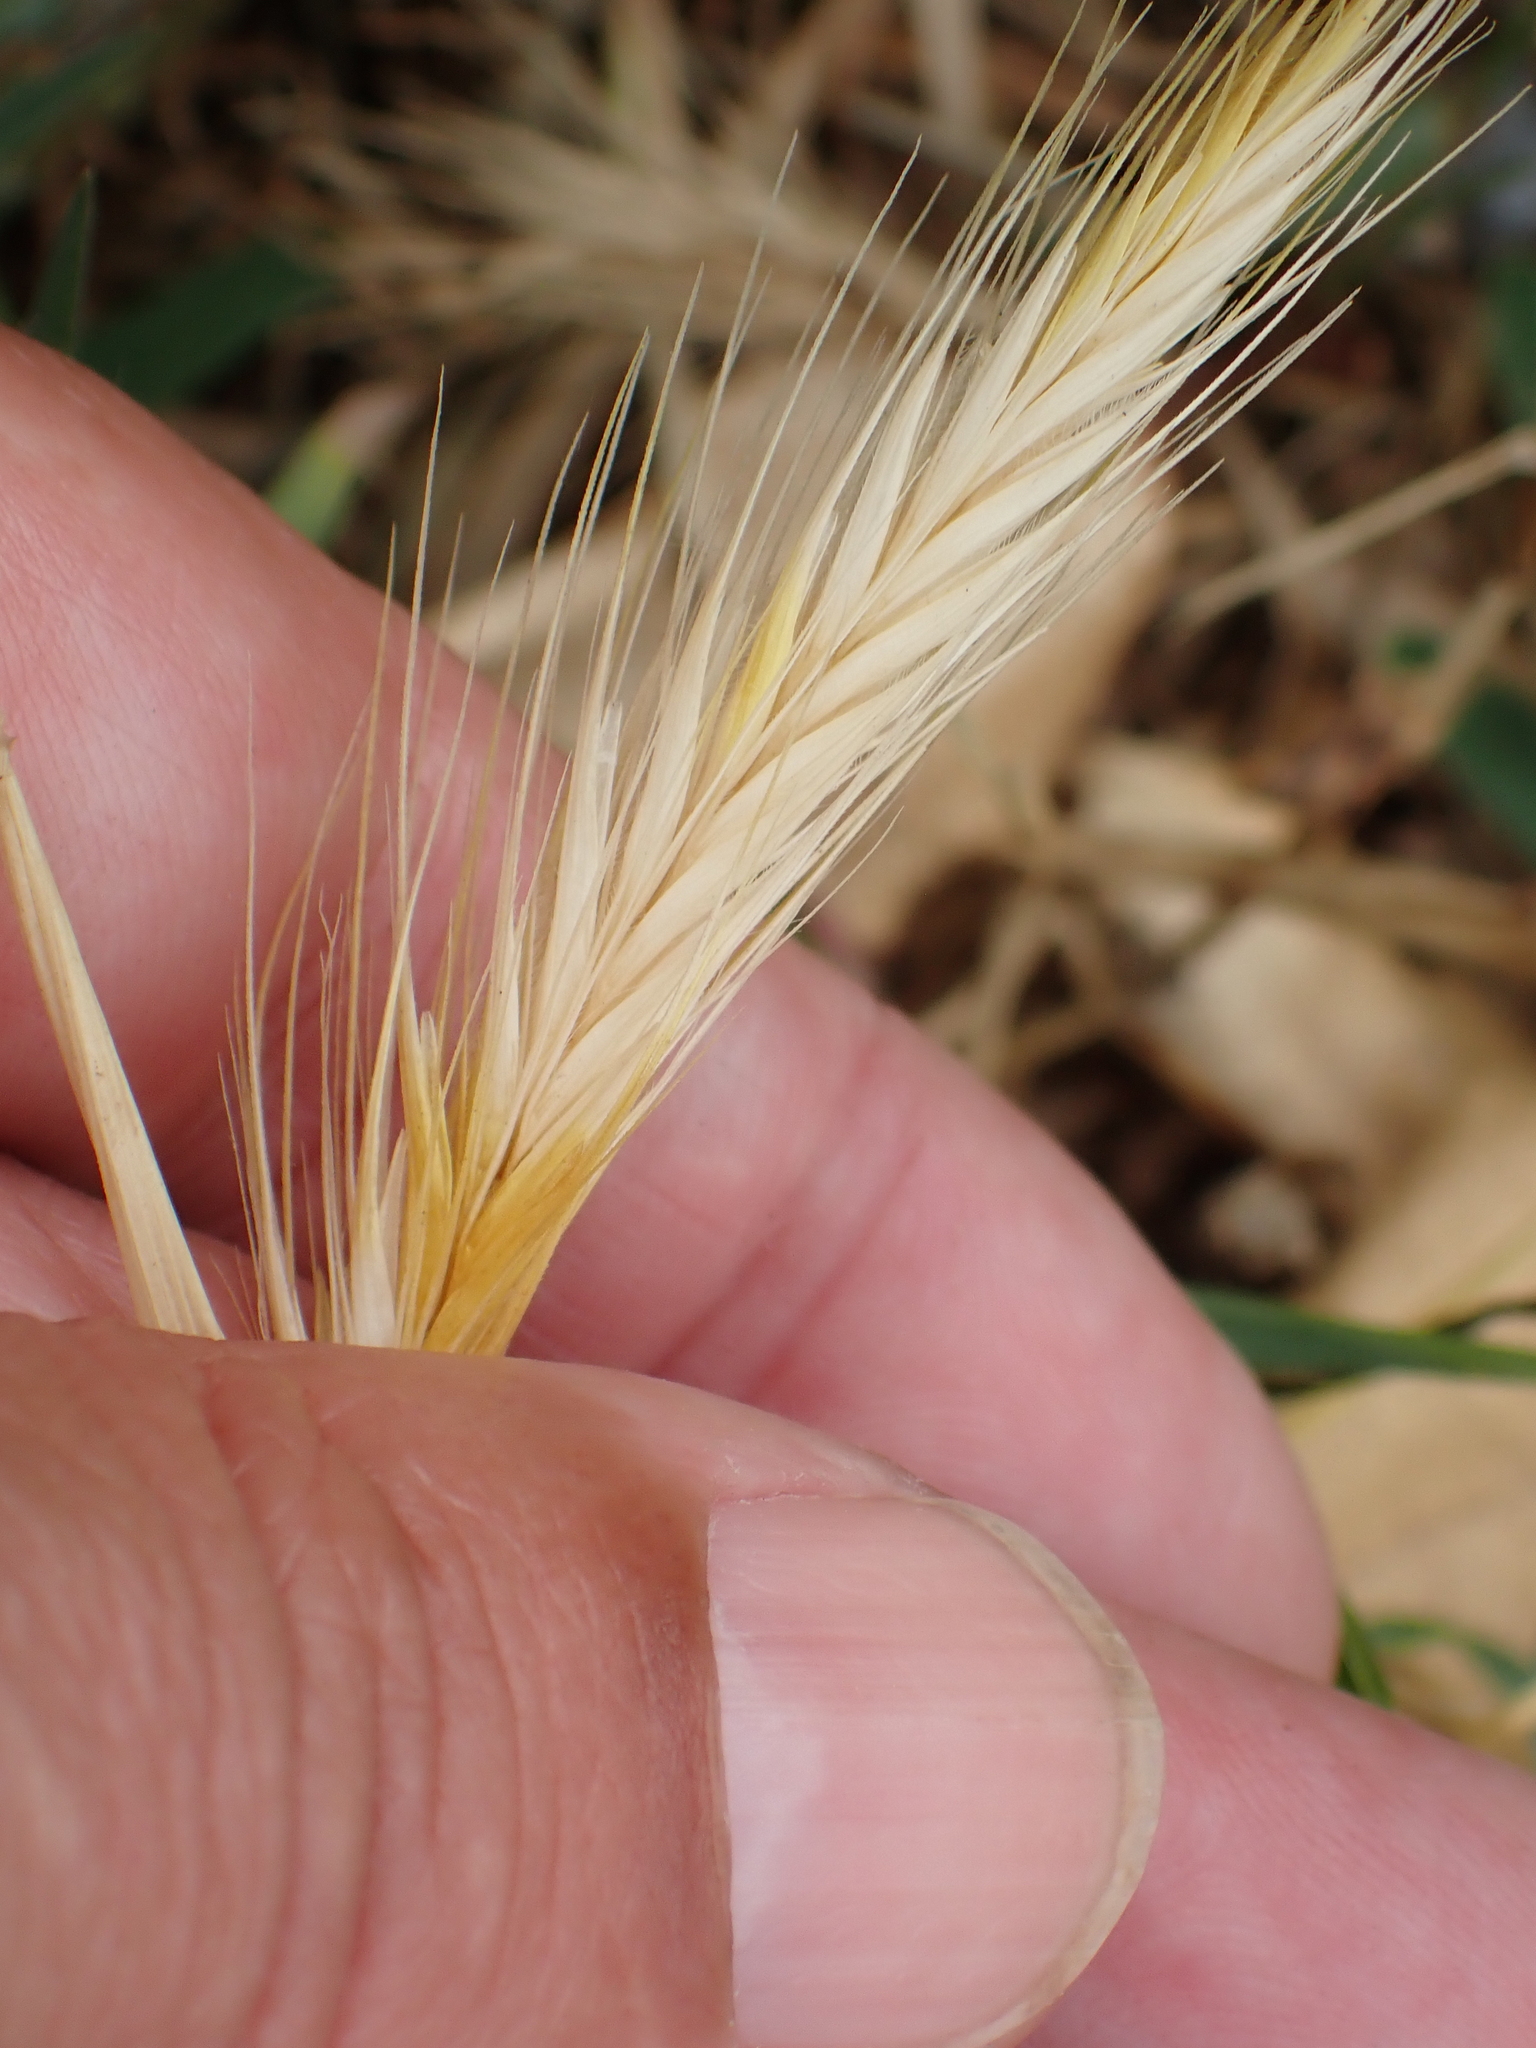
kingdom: Plantae
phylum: Tracheophyta
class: Liliopsida
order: Poales
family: Poaceae
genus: Hordeum
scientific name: Hordeum murinum
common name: Wall barley
